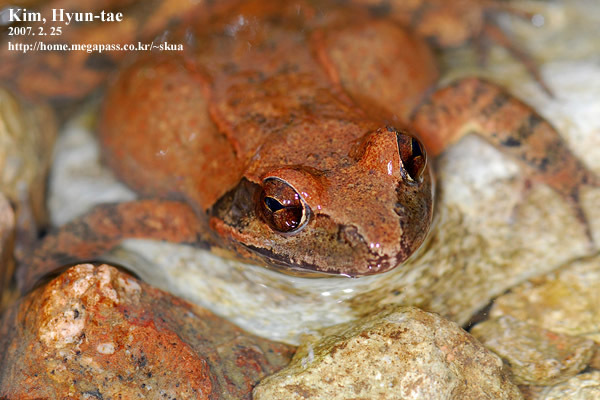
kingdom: Animalia
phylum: Chordata
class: Amphibia
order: Anura
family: Ranidae
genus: Rana
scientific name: Rana huanrenensis
